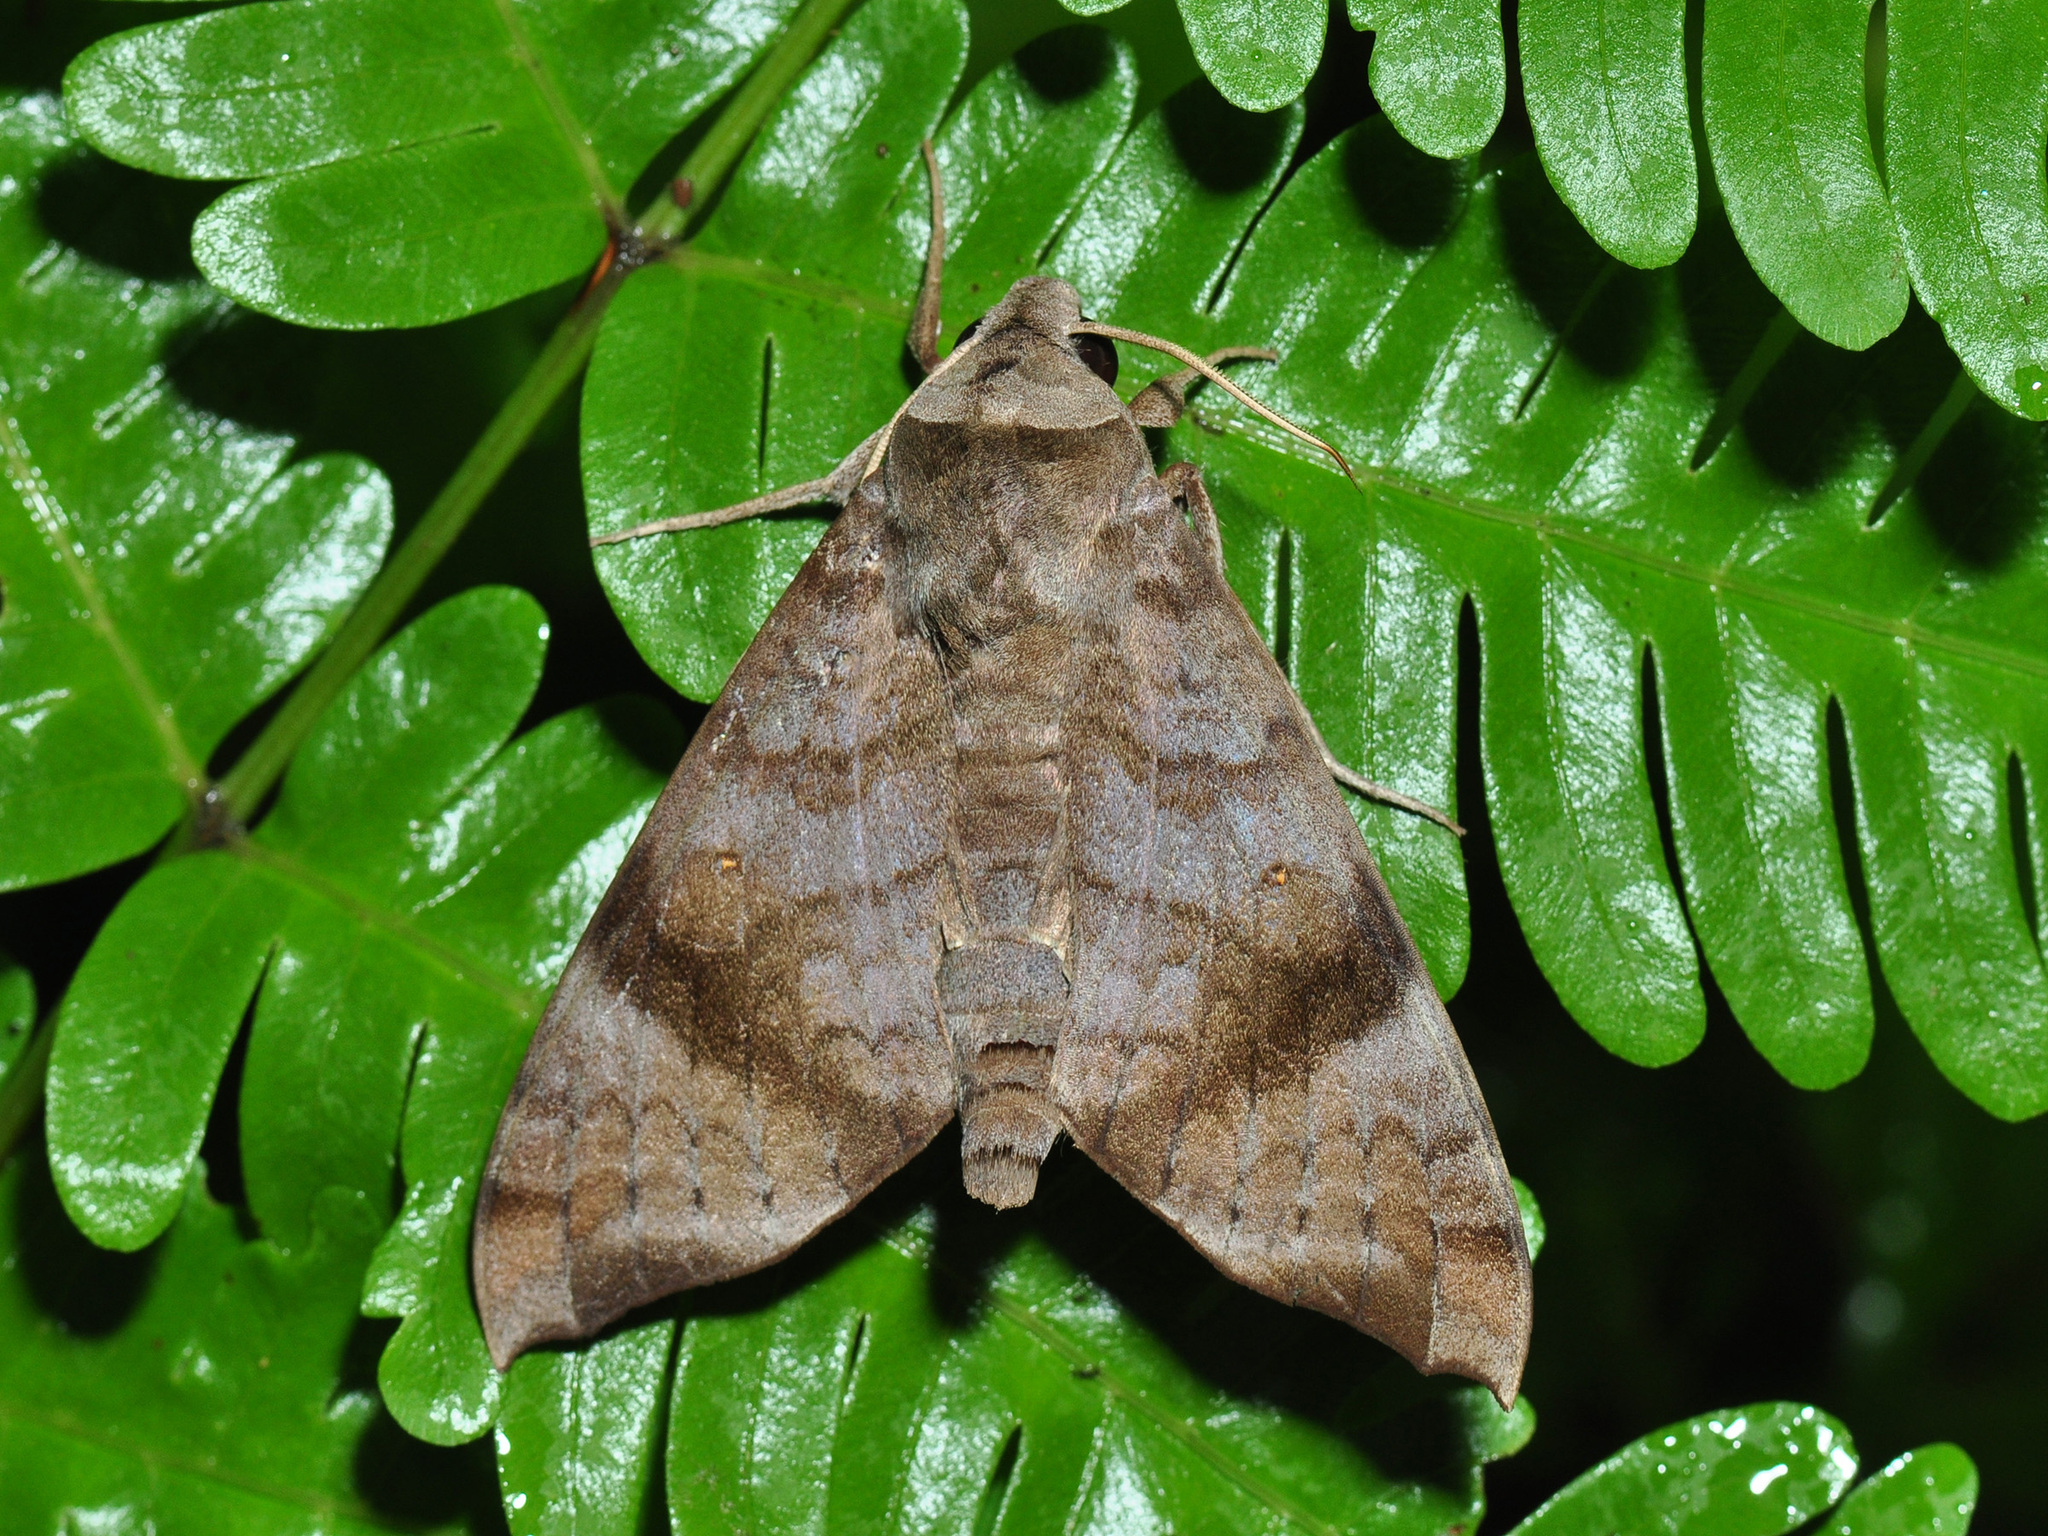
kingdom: Animalia
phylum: Arthropoda
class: Insecta
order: Lepidoptera
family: Sphingidae
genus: Acosmeryx
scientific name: Acosmeryx shervillii
